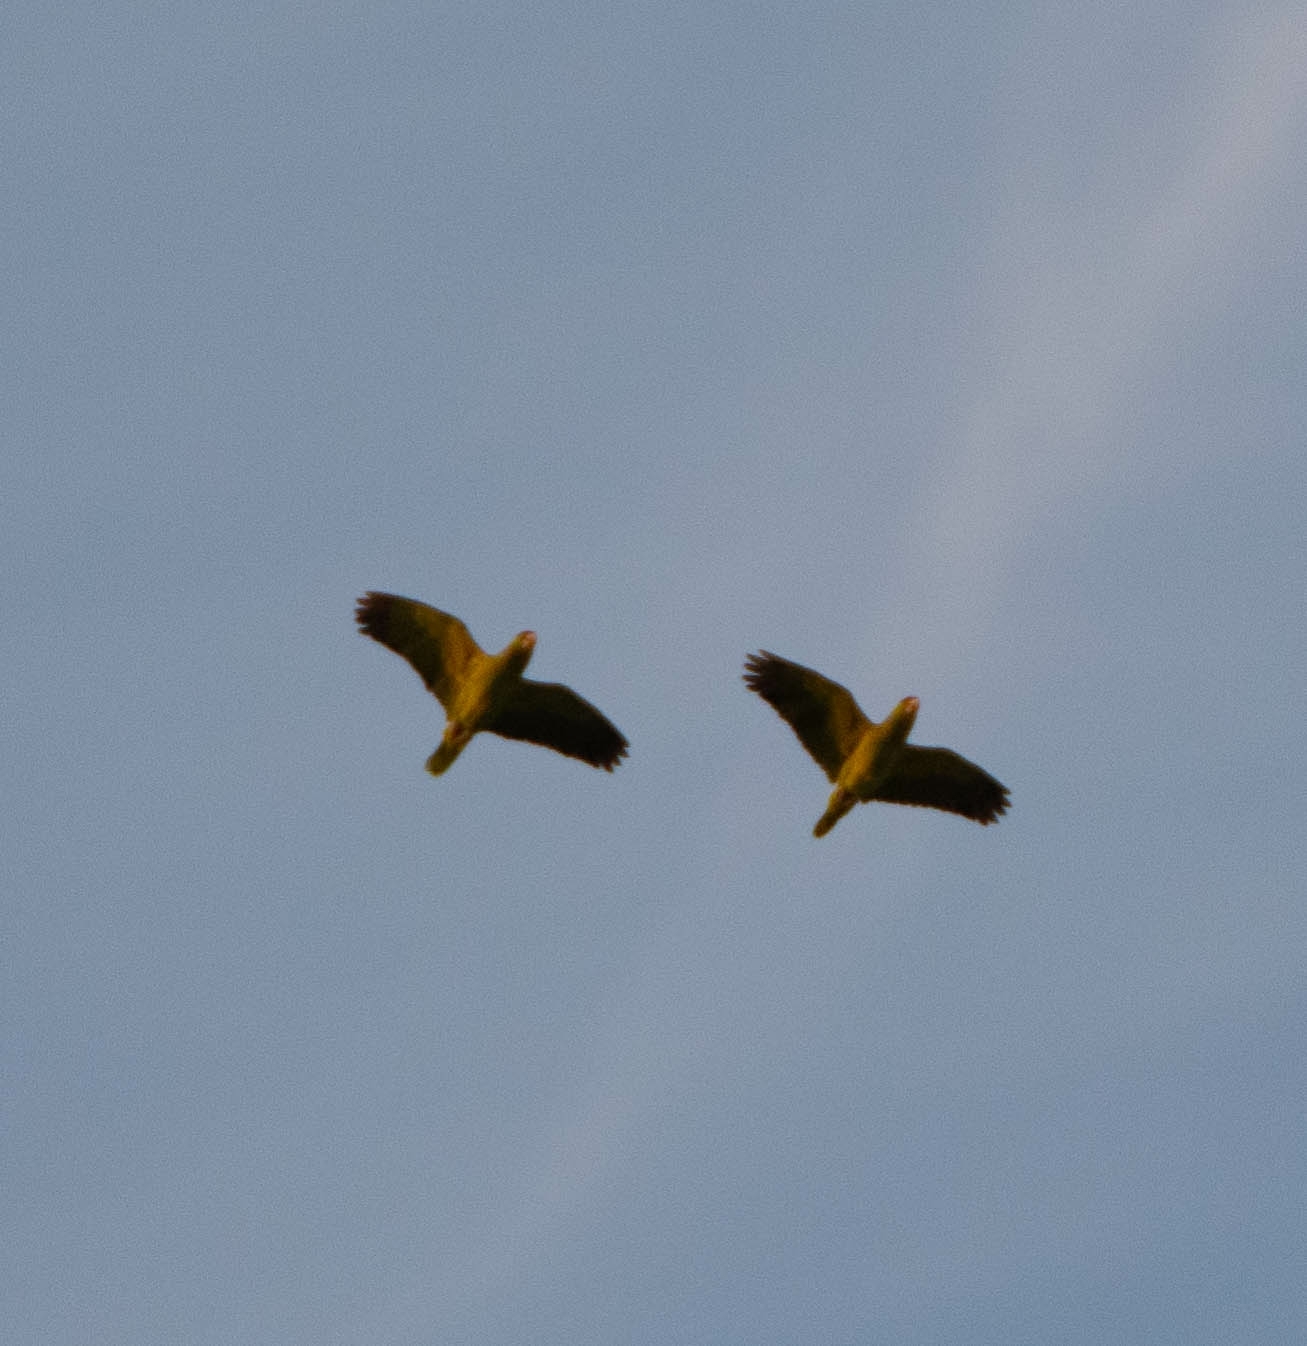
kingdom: Animalia
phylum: Chordata
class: Aves
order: Psittaciformes
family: Psittacidae
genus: Amazona
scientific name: Amazona viridigenalis
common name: Red-crowned amazon
